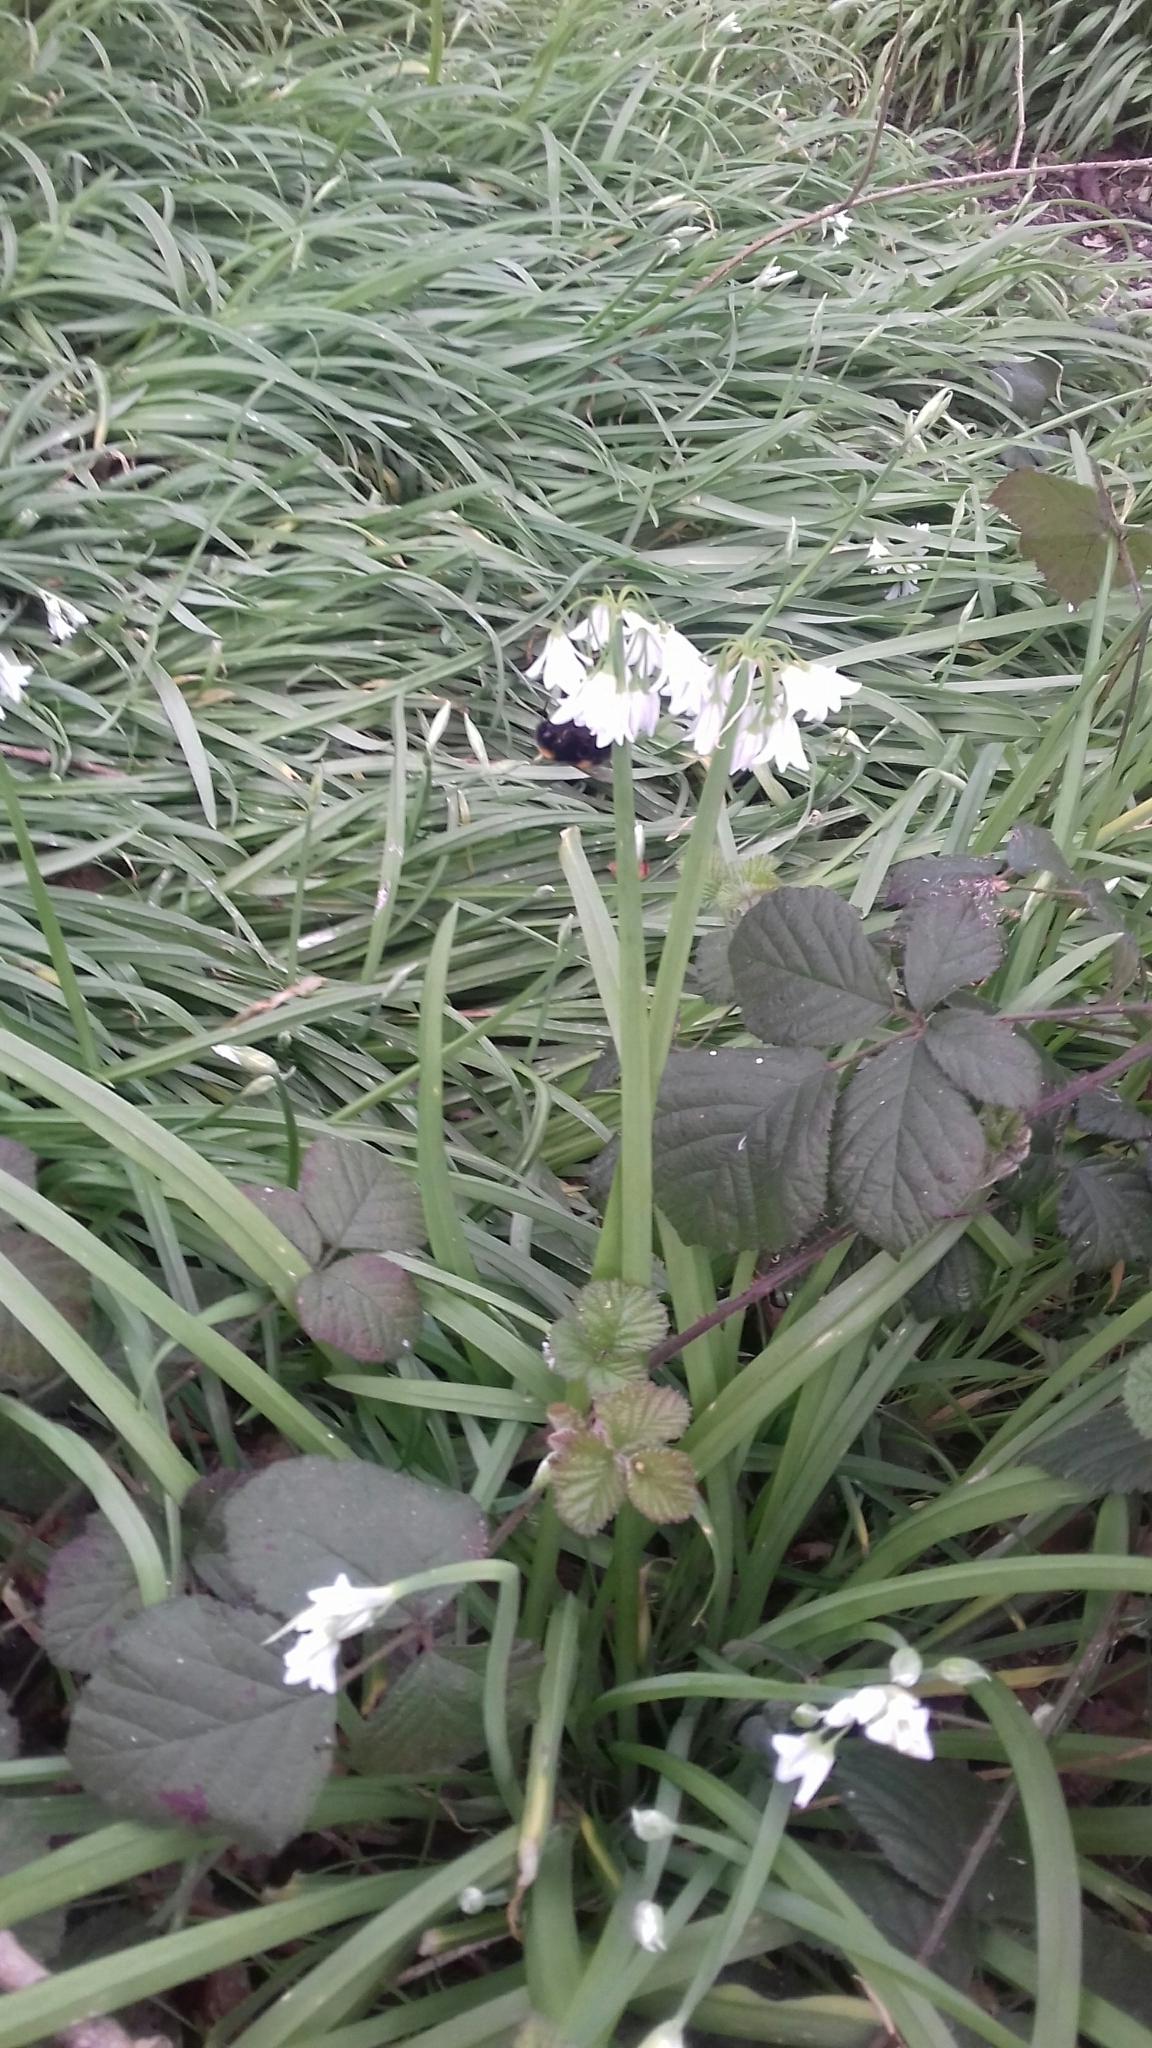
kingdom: Plantae
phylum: Tracheophyta
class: Liliopsida
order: Asparagales
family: Amaryllidaceae
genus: Allium
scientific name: Allium triquetrum
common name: Three-cornered garlic
